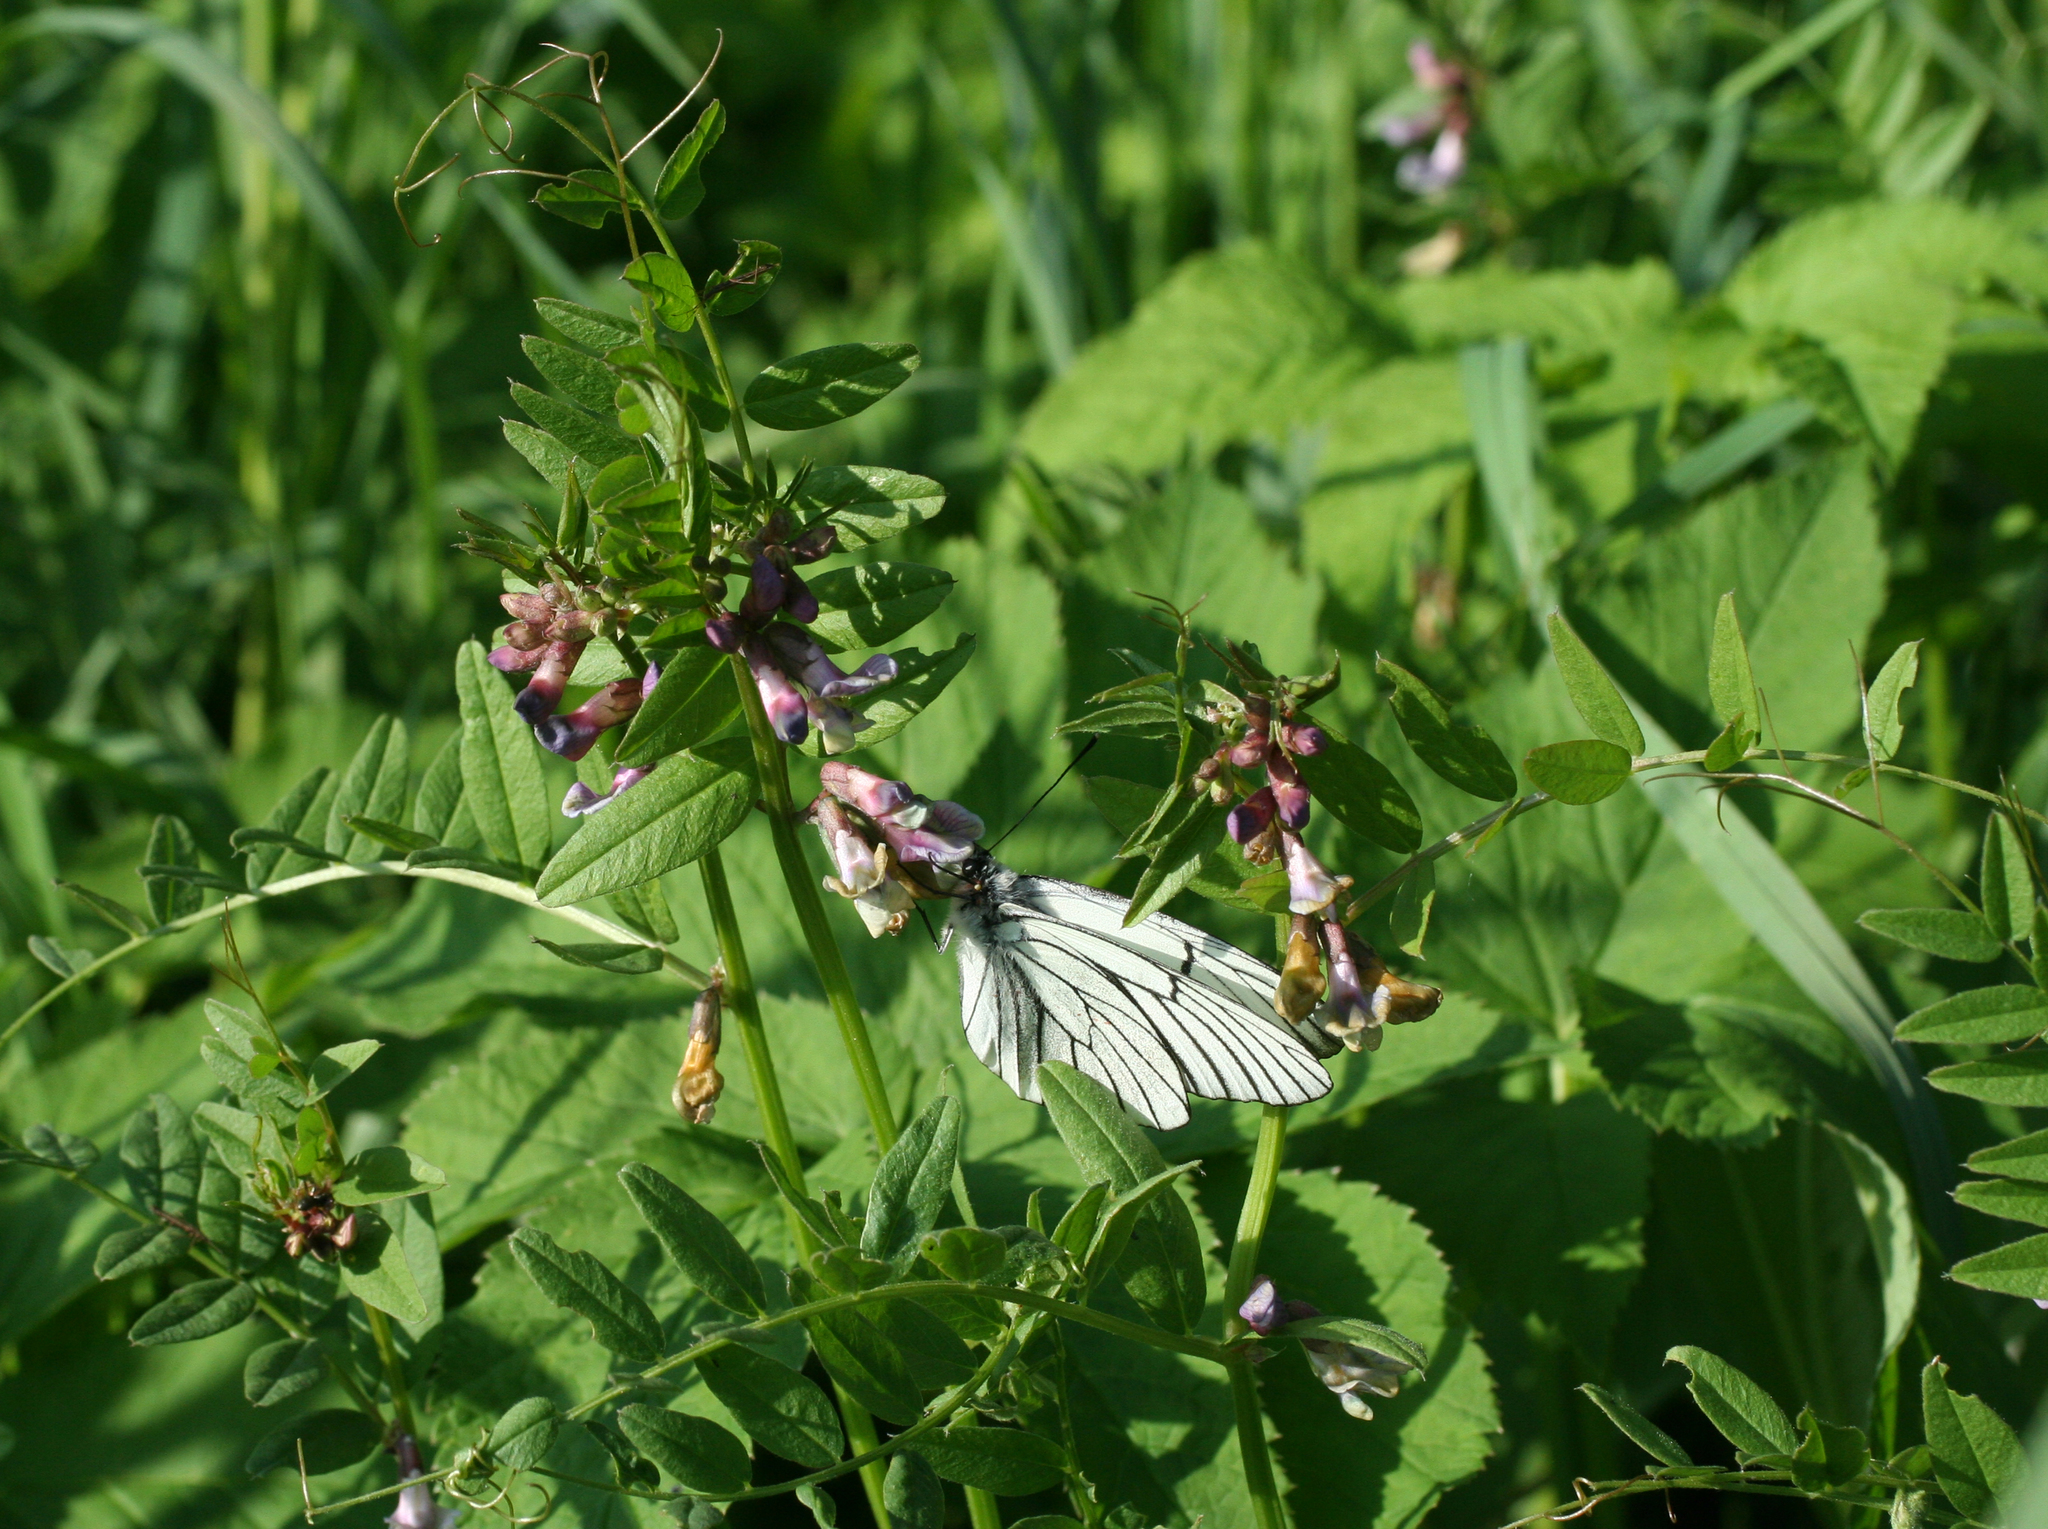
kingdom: Plantae
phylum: Tracheophyta
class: Magnoliopsida
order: Fabales
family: Fabaceae
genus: Vicia
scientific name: Vicia sepium
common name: Bush vetch
